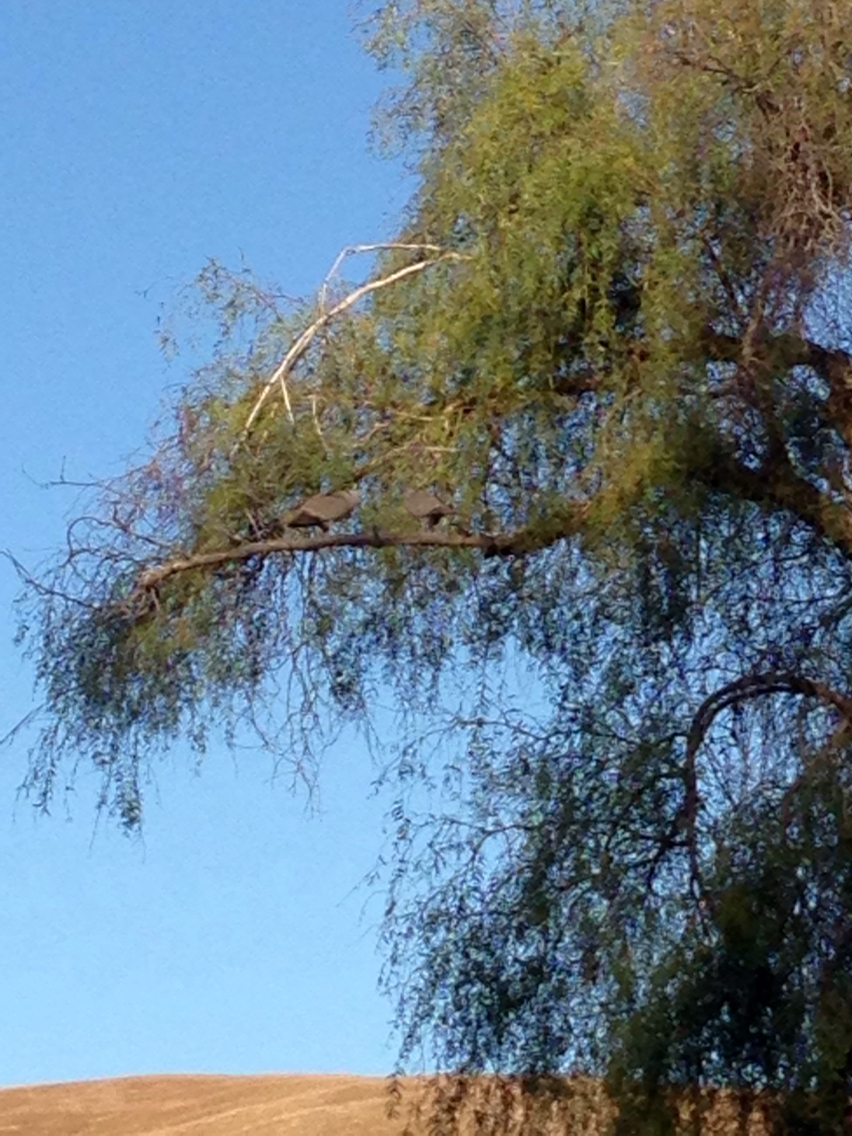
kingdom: Animalia
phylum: Chordata
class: Aves
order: Columbiformes
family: Columbidae
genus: Streptopelia
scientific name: Streptopelia decaocto
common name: Eurasian collared dove
